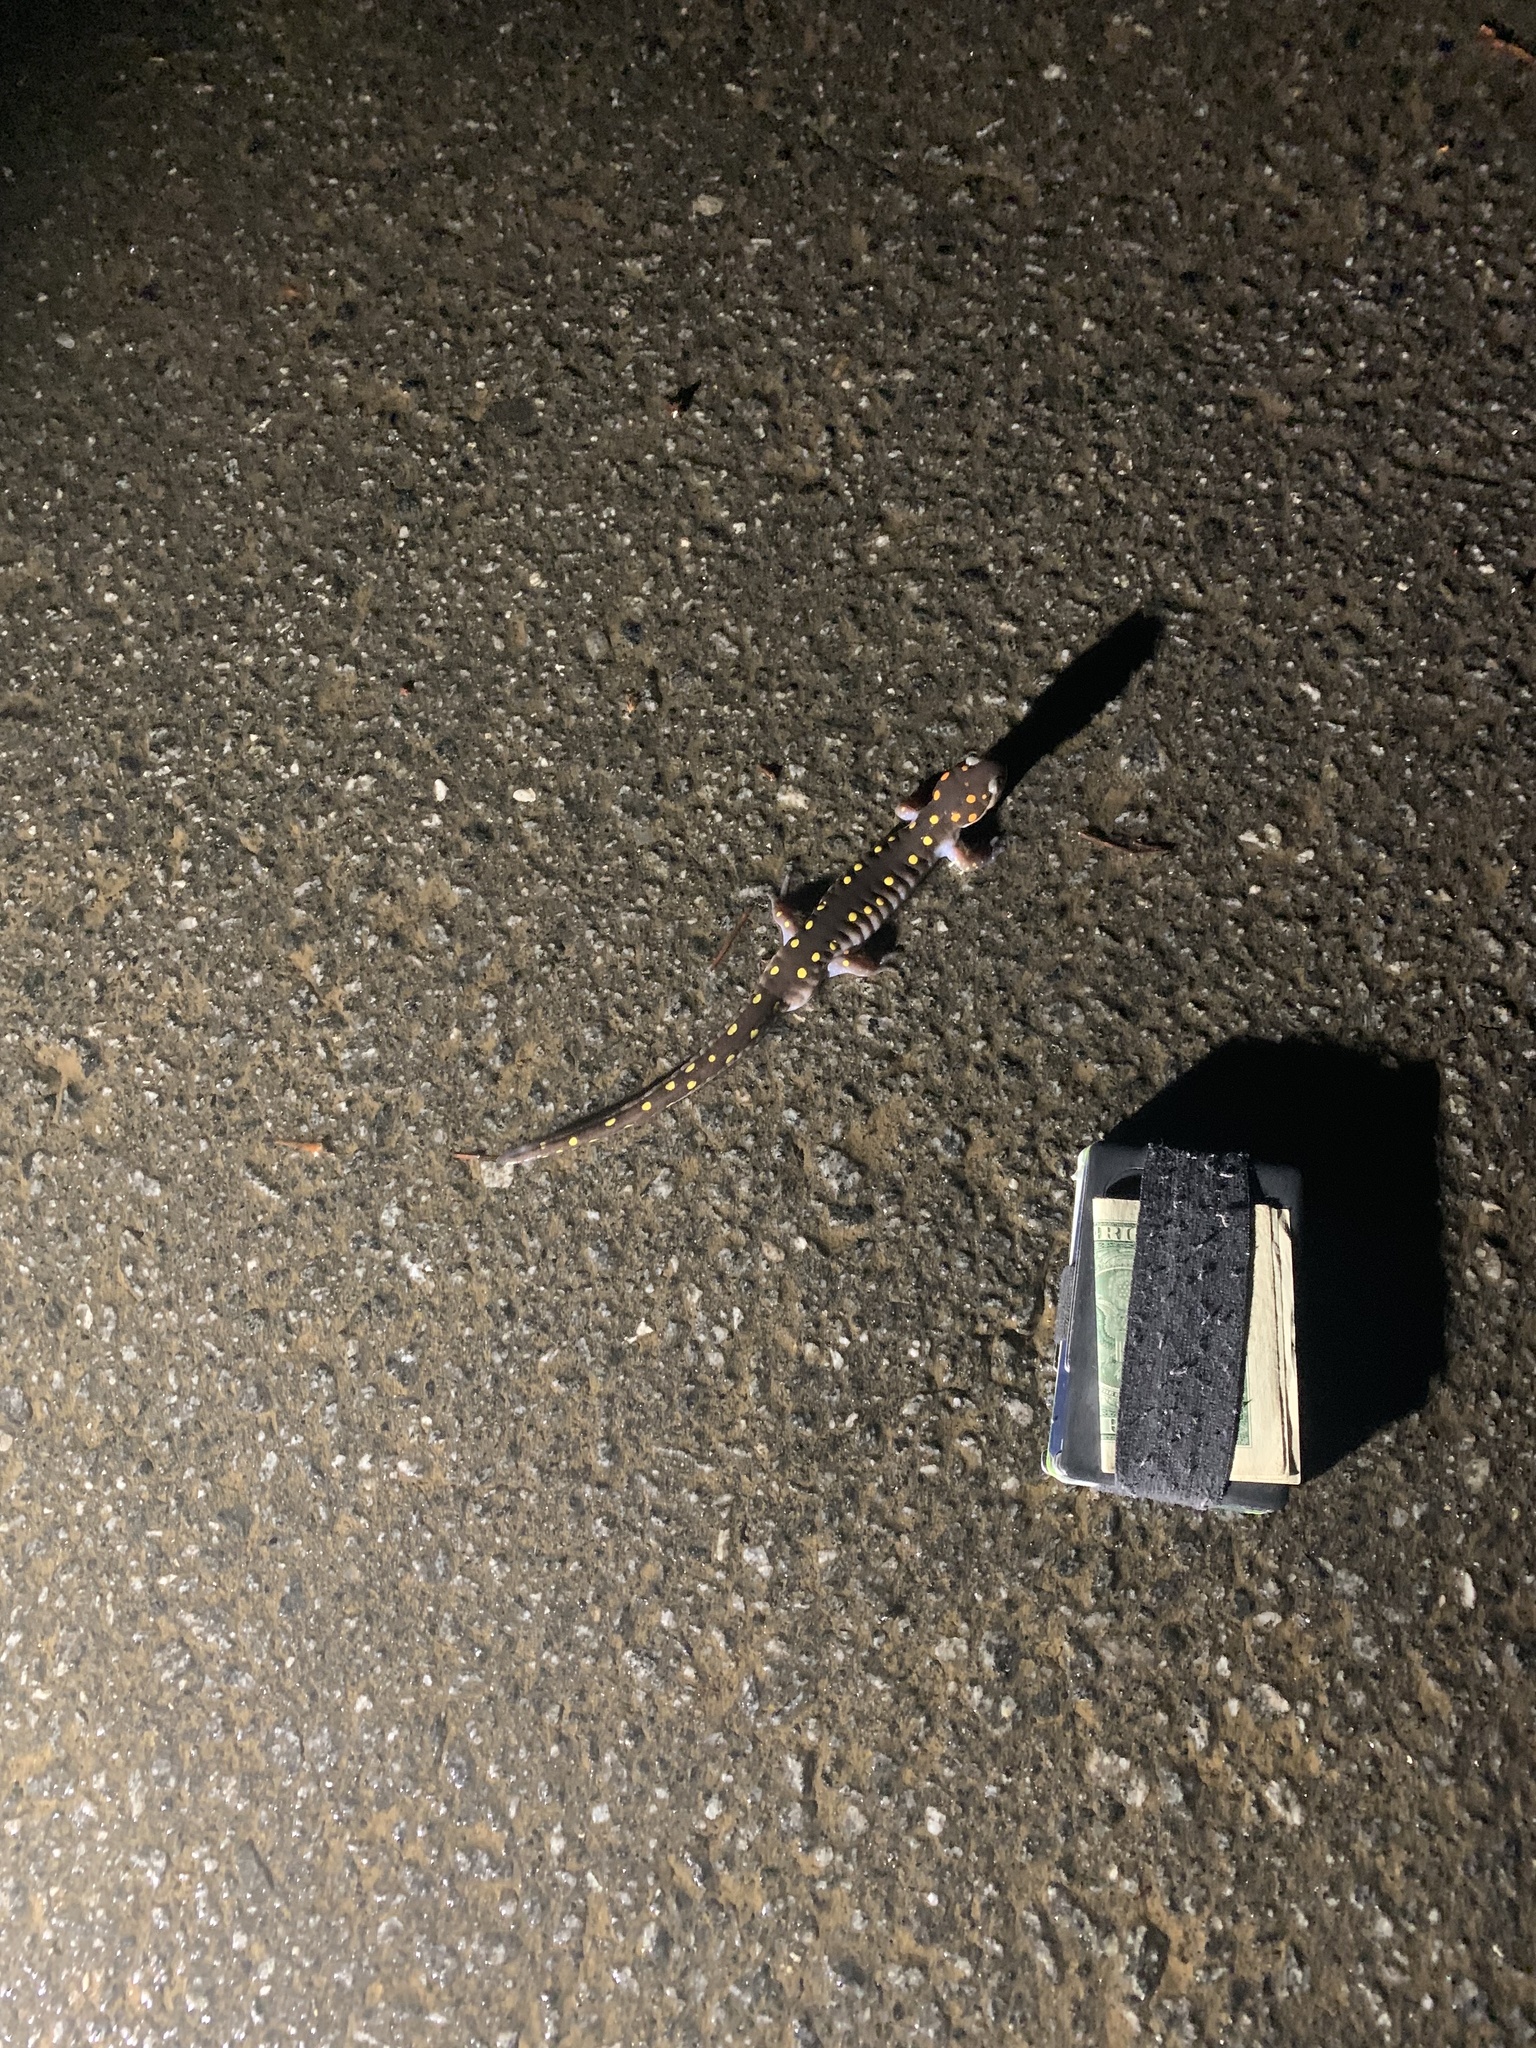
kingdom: Animalia
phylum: Chordata
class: Amphibia
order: Caudata
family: Ambystomatidae
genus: Ambystoma
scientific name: Ambystoma maculatum
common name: Spotted salamander
